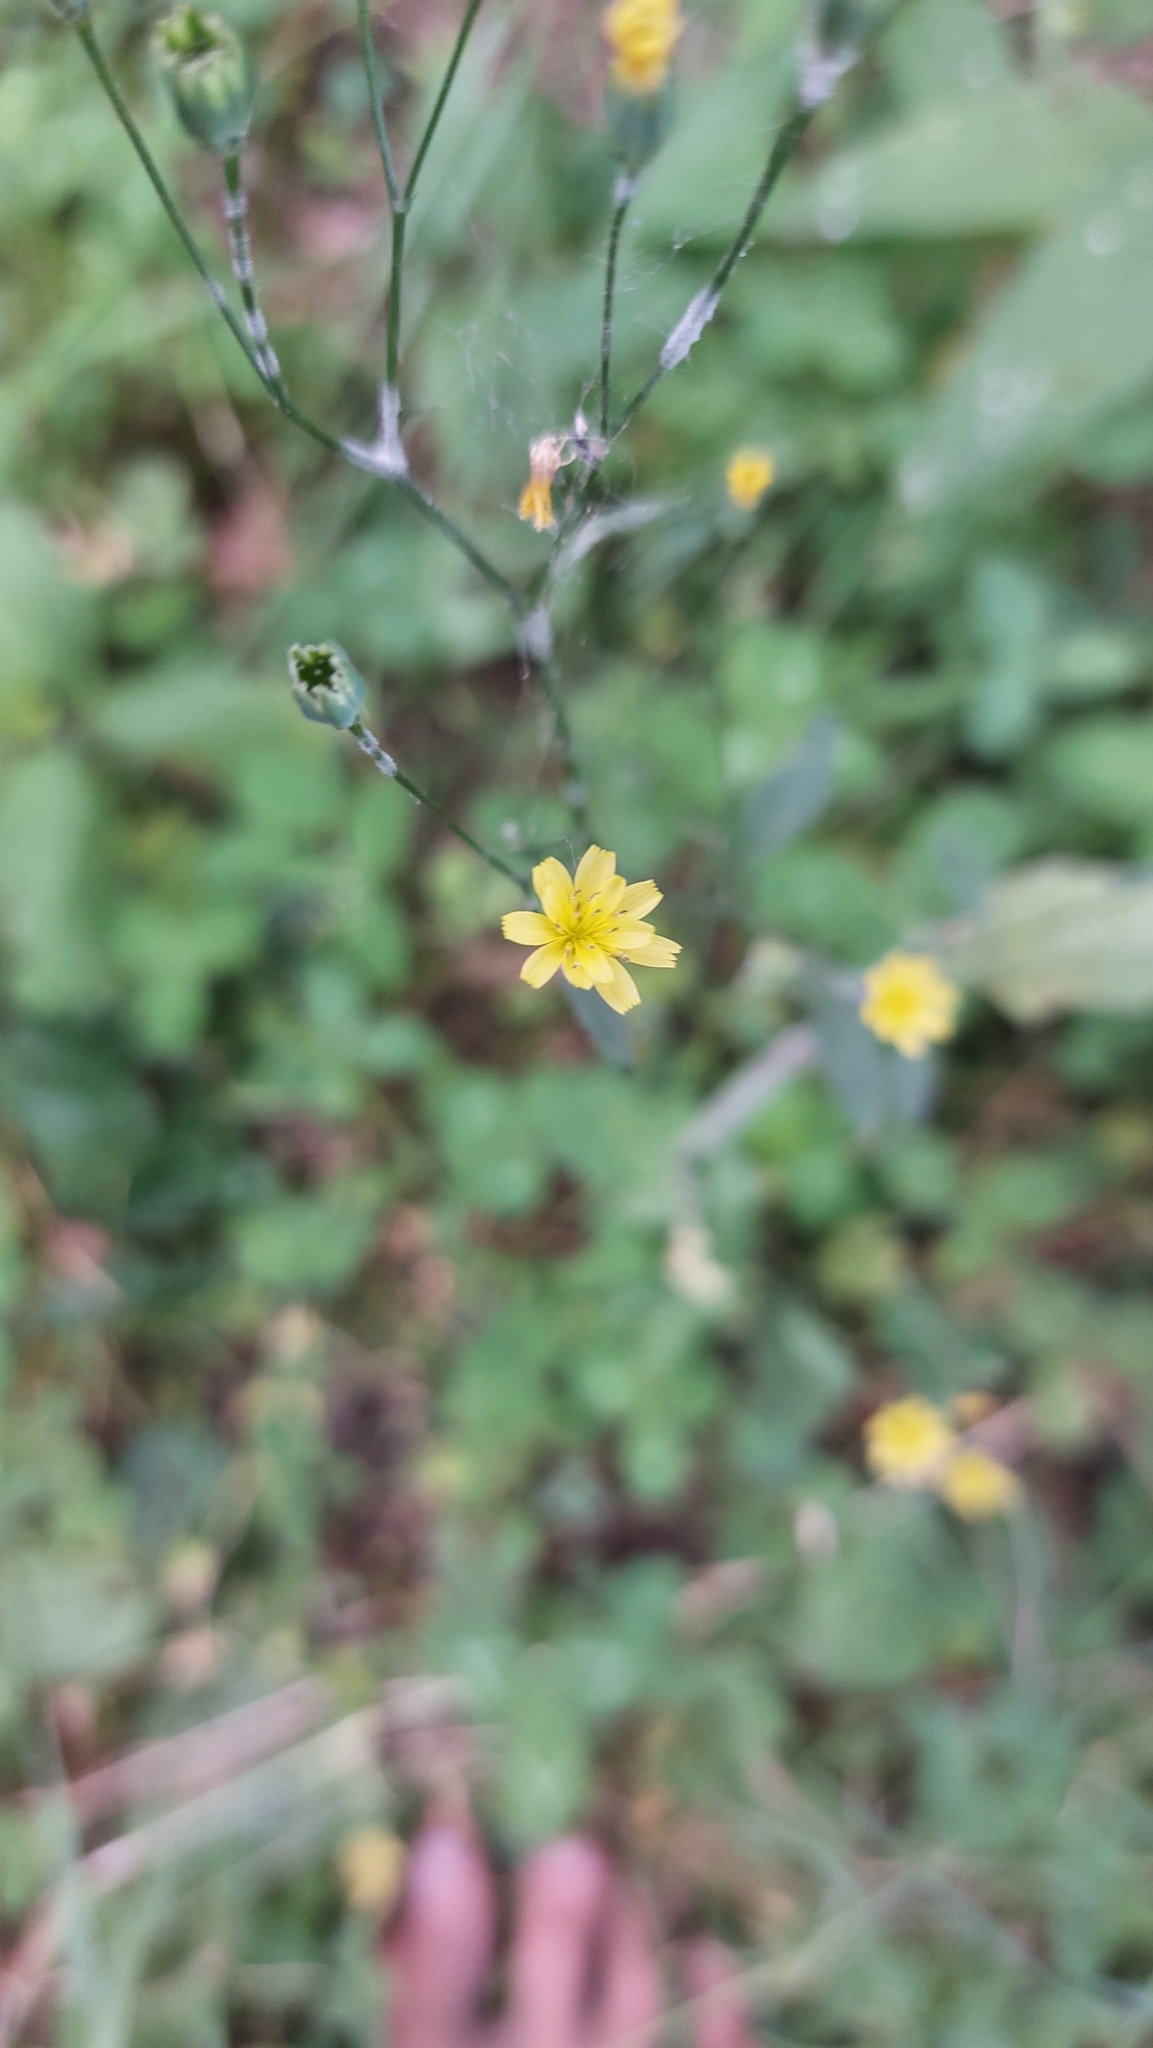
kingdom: Plantae
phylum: Tracheophyta
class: Magnoliopsida
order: Asterales
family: Asteraceae
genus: Lapsana
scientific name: Lapsana communis
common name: Nipplewort
